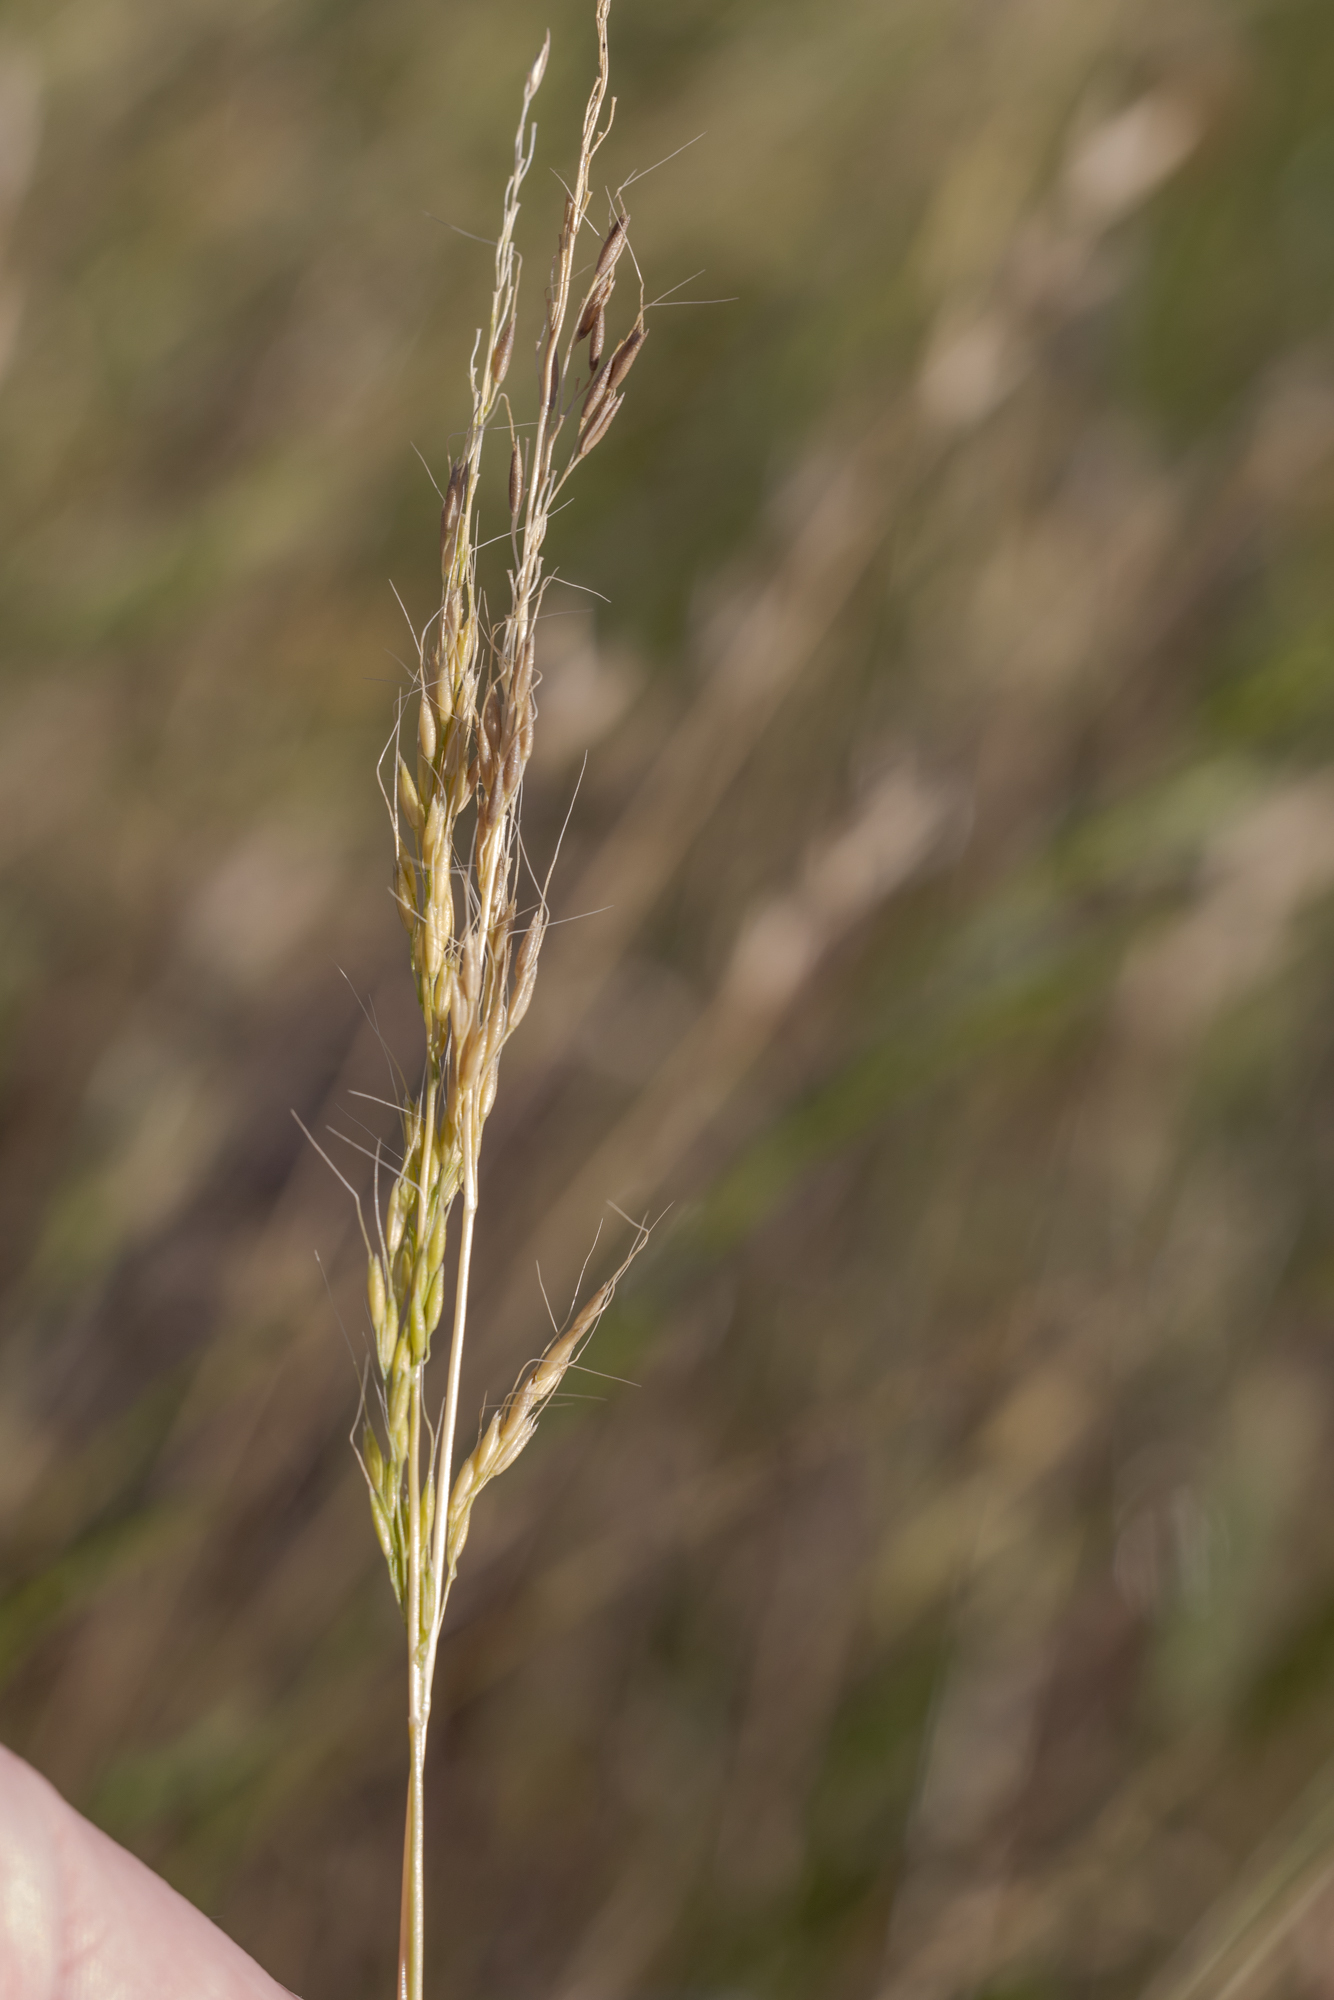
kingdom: Plantae
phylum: Tracheophyta
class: Liliopsida
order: Poales
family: Poaceae
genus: Limnodea
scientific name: Limnodea arkansana
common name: Ozark-grass
